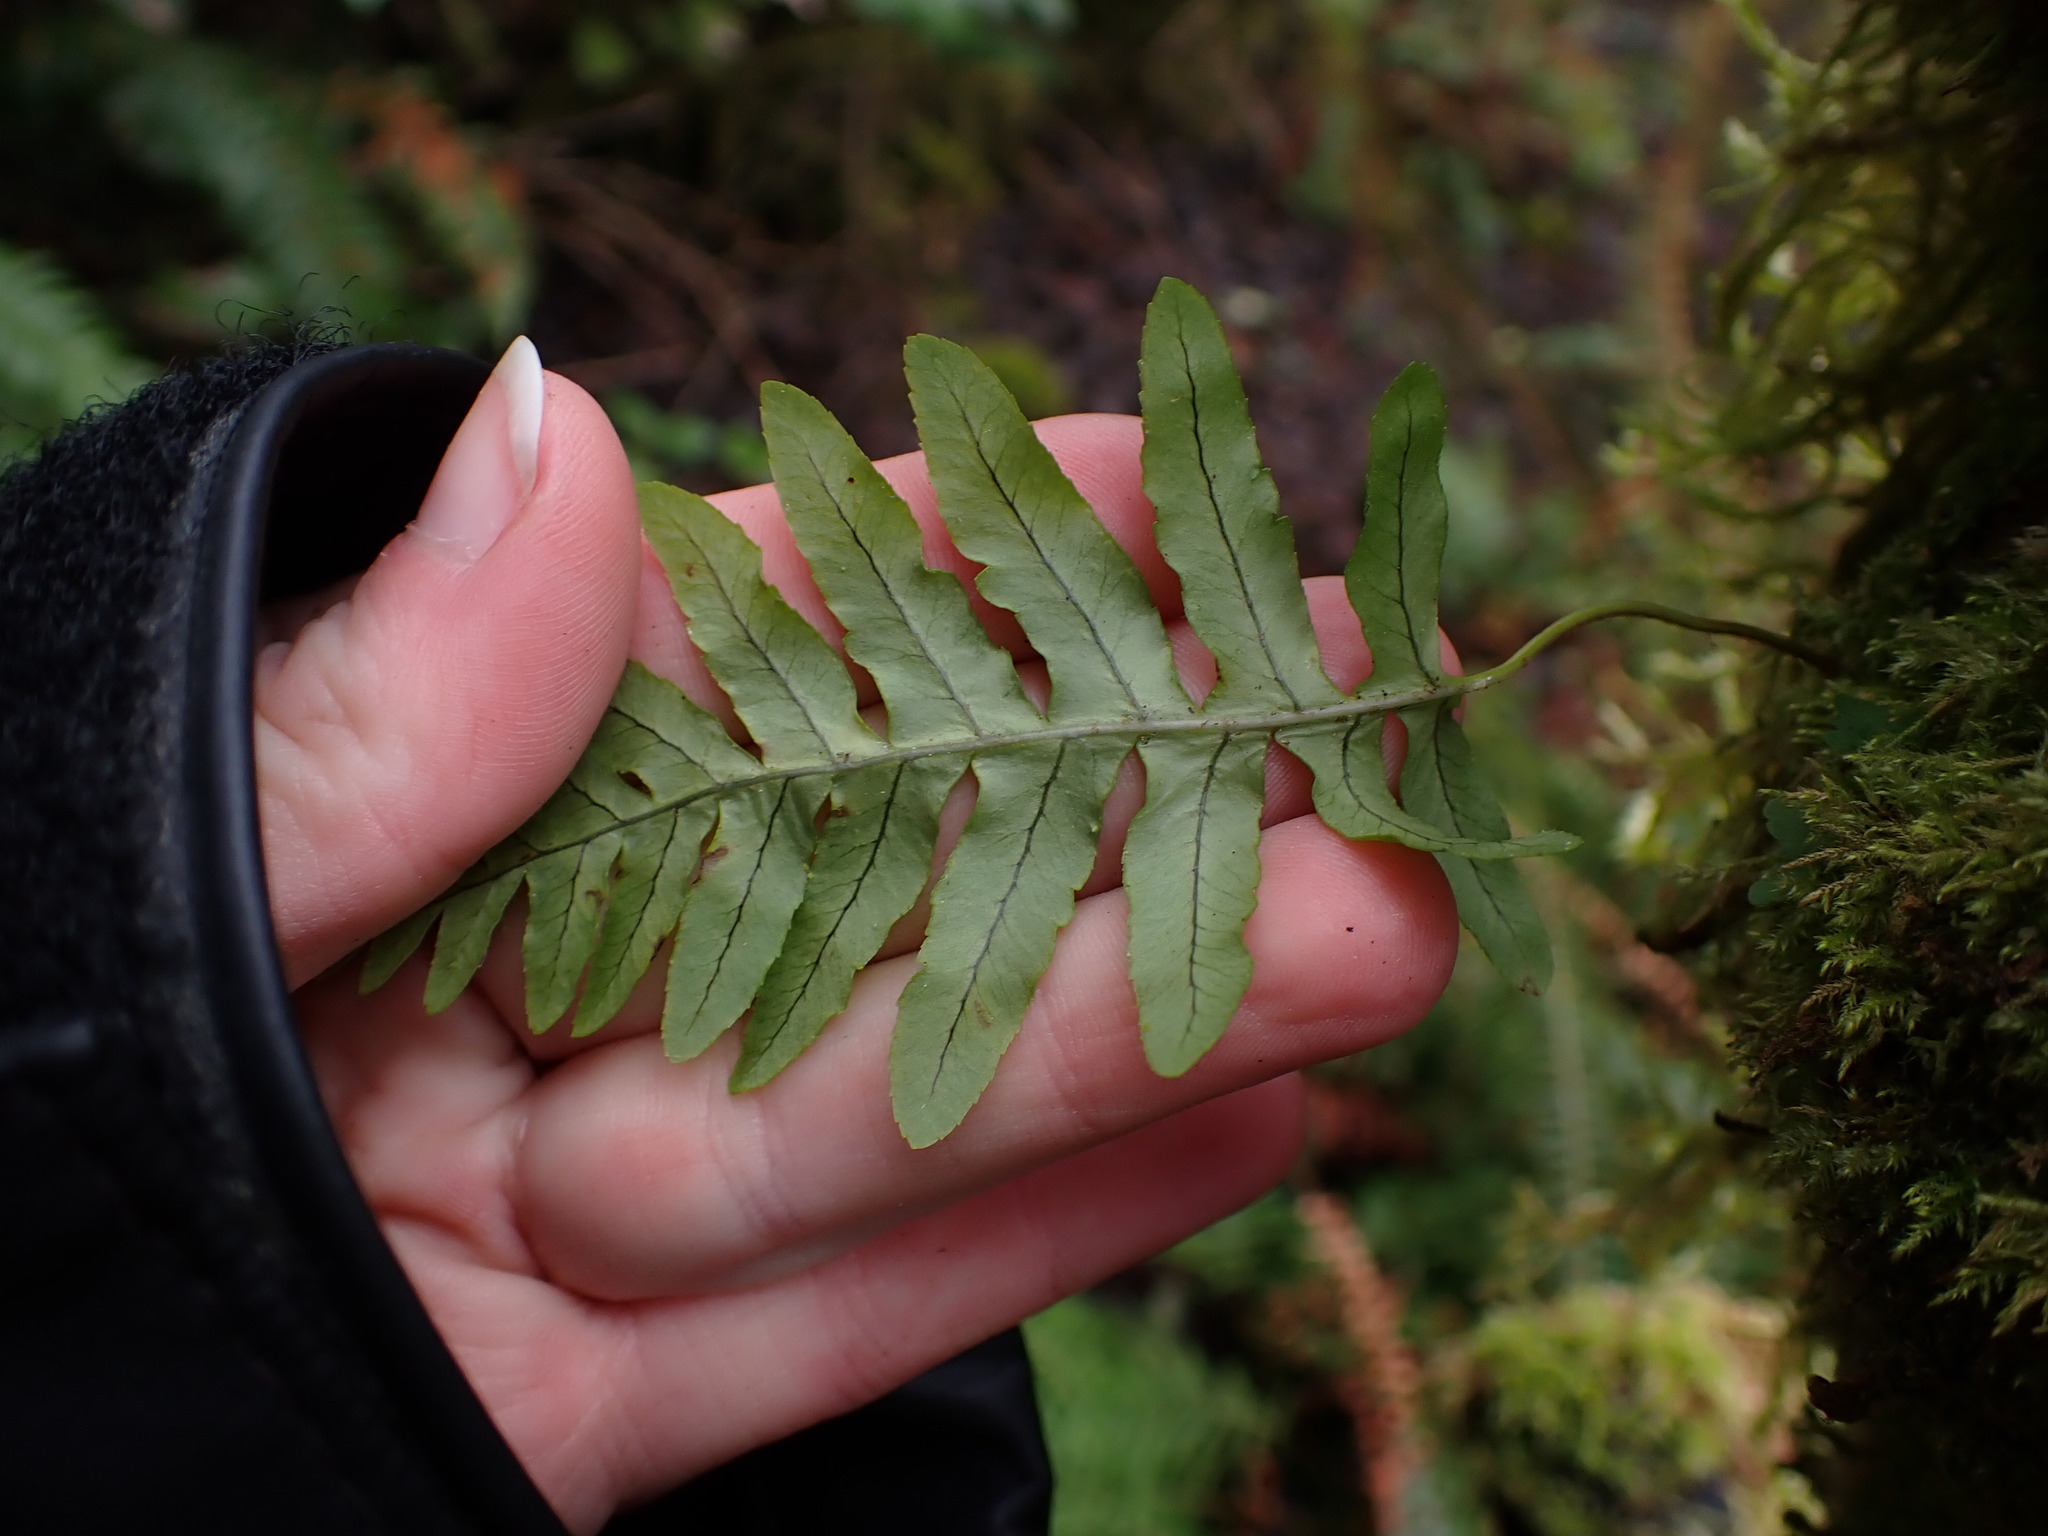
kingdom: Plantae
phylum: Tracheophyta
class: Polypodiopsida
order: Polypodiales
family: Polypodiaceae
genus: Polypodium
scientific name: Polypodium glycyrrhiza
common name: Licorice fern
